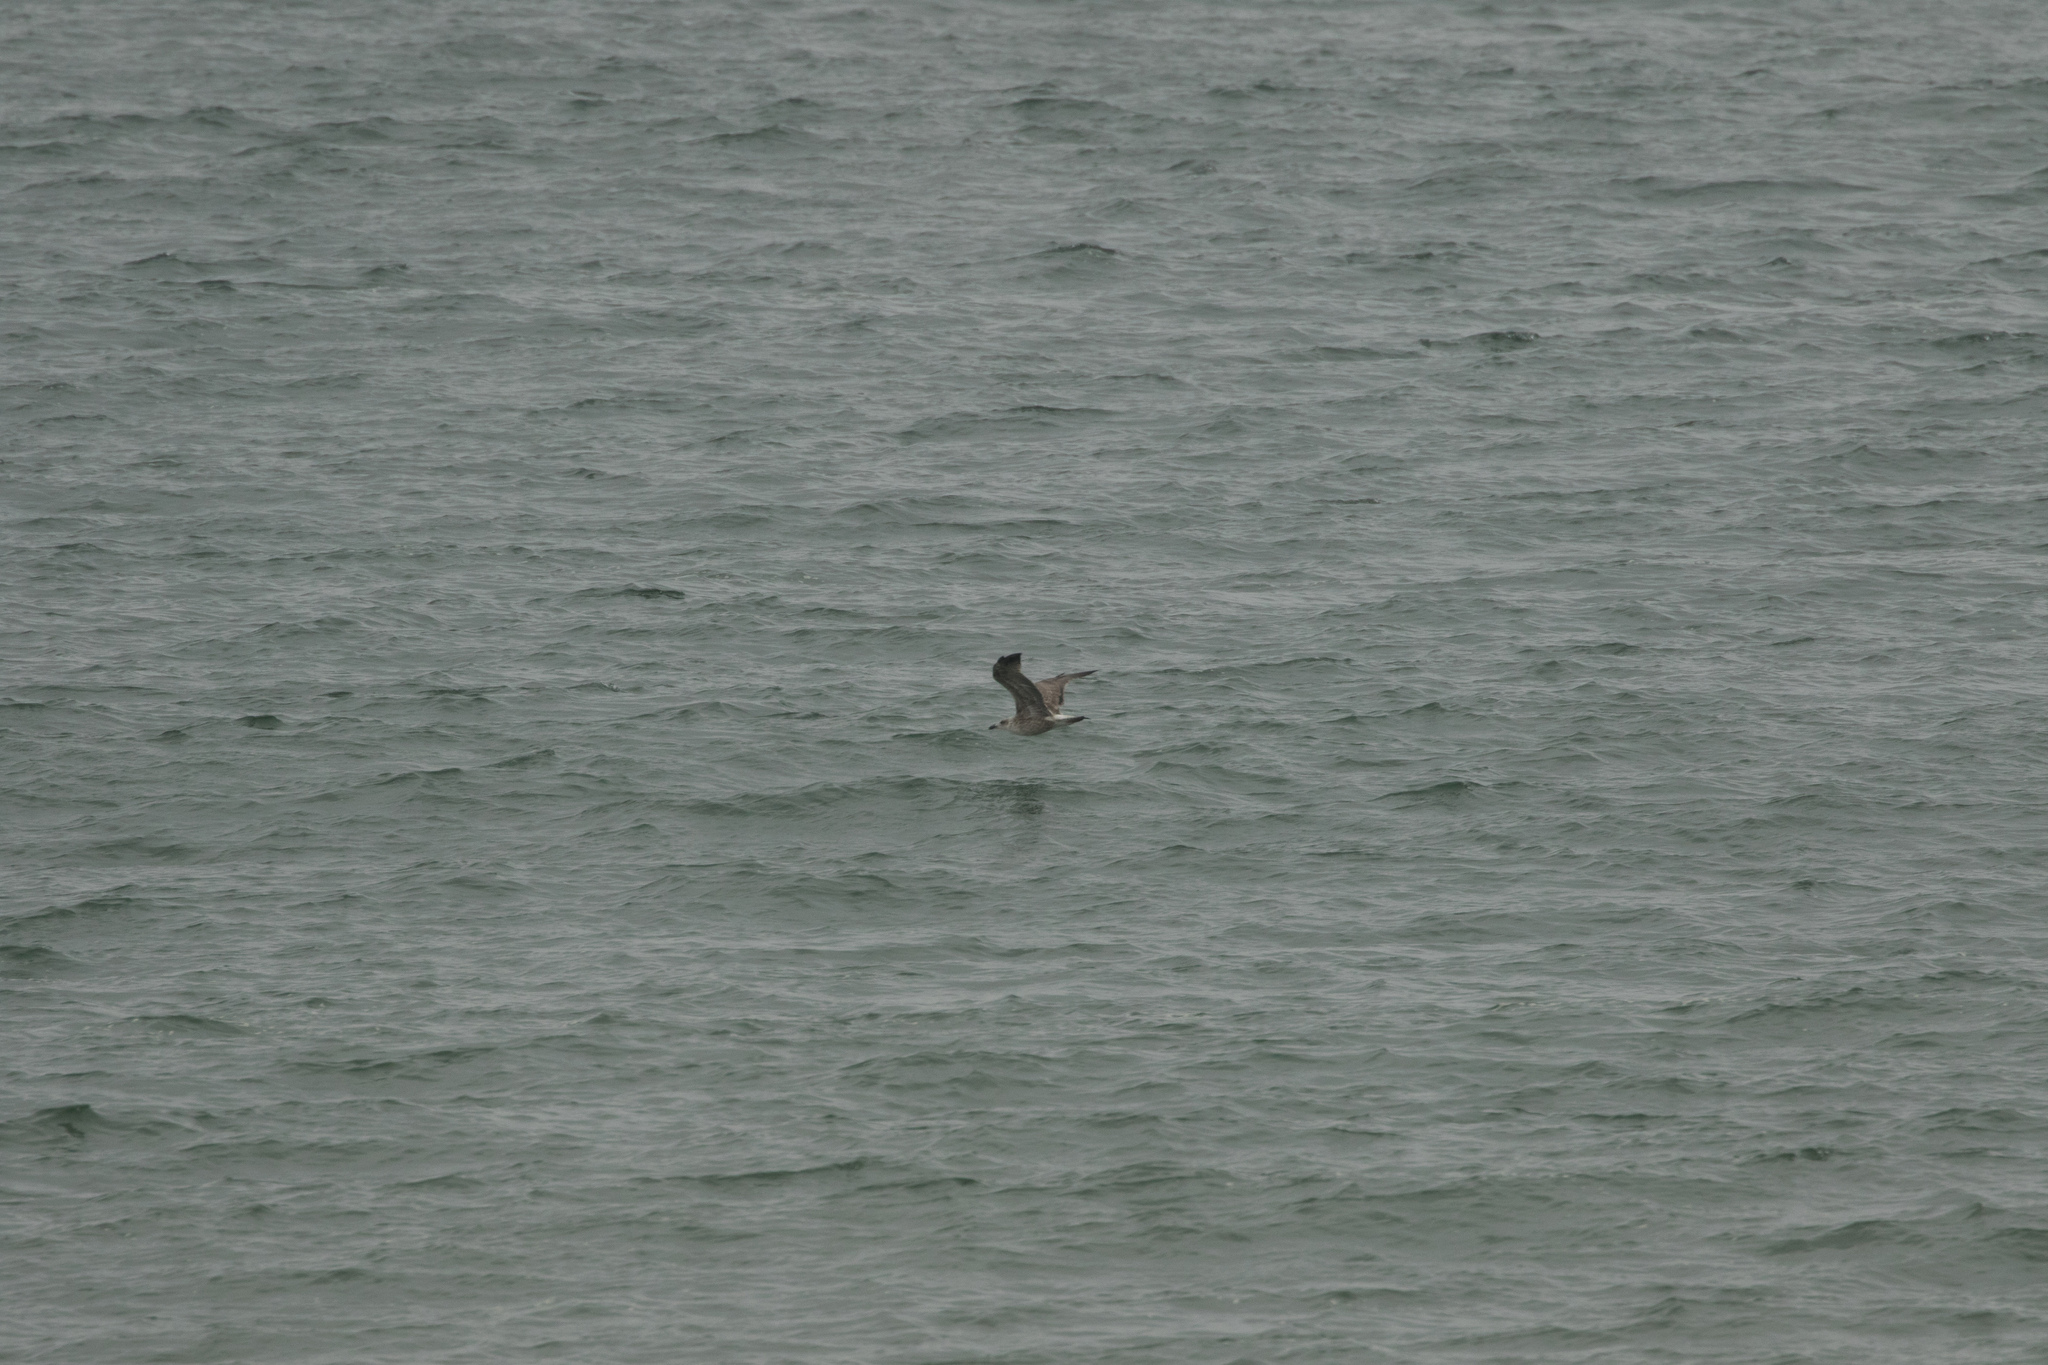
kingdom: Animalia
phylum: Chordata
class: Aves
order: Charadriiformes
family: Laridae
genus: Larus
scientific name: Larus
